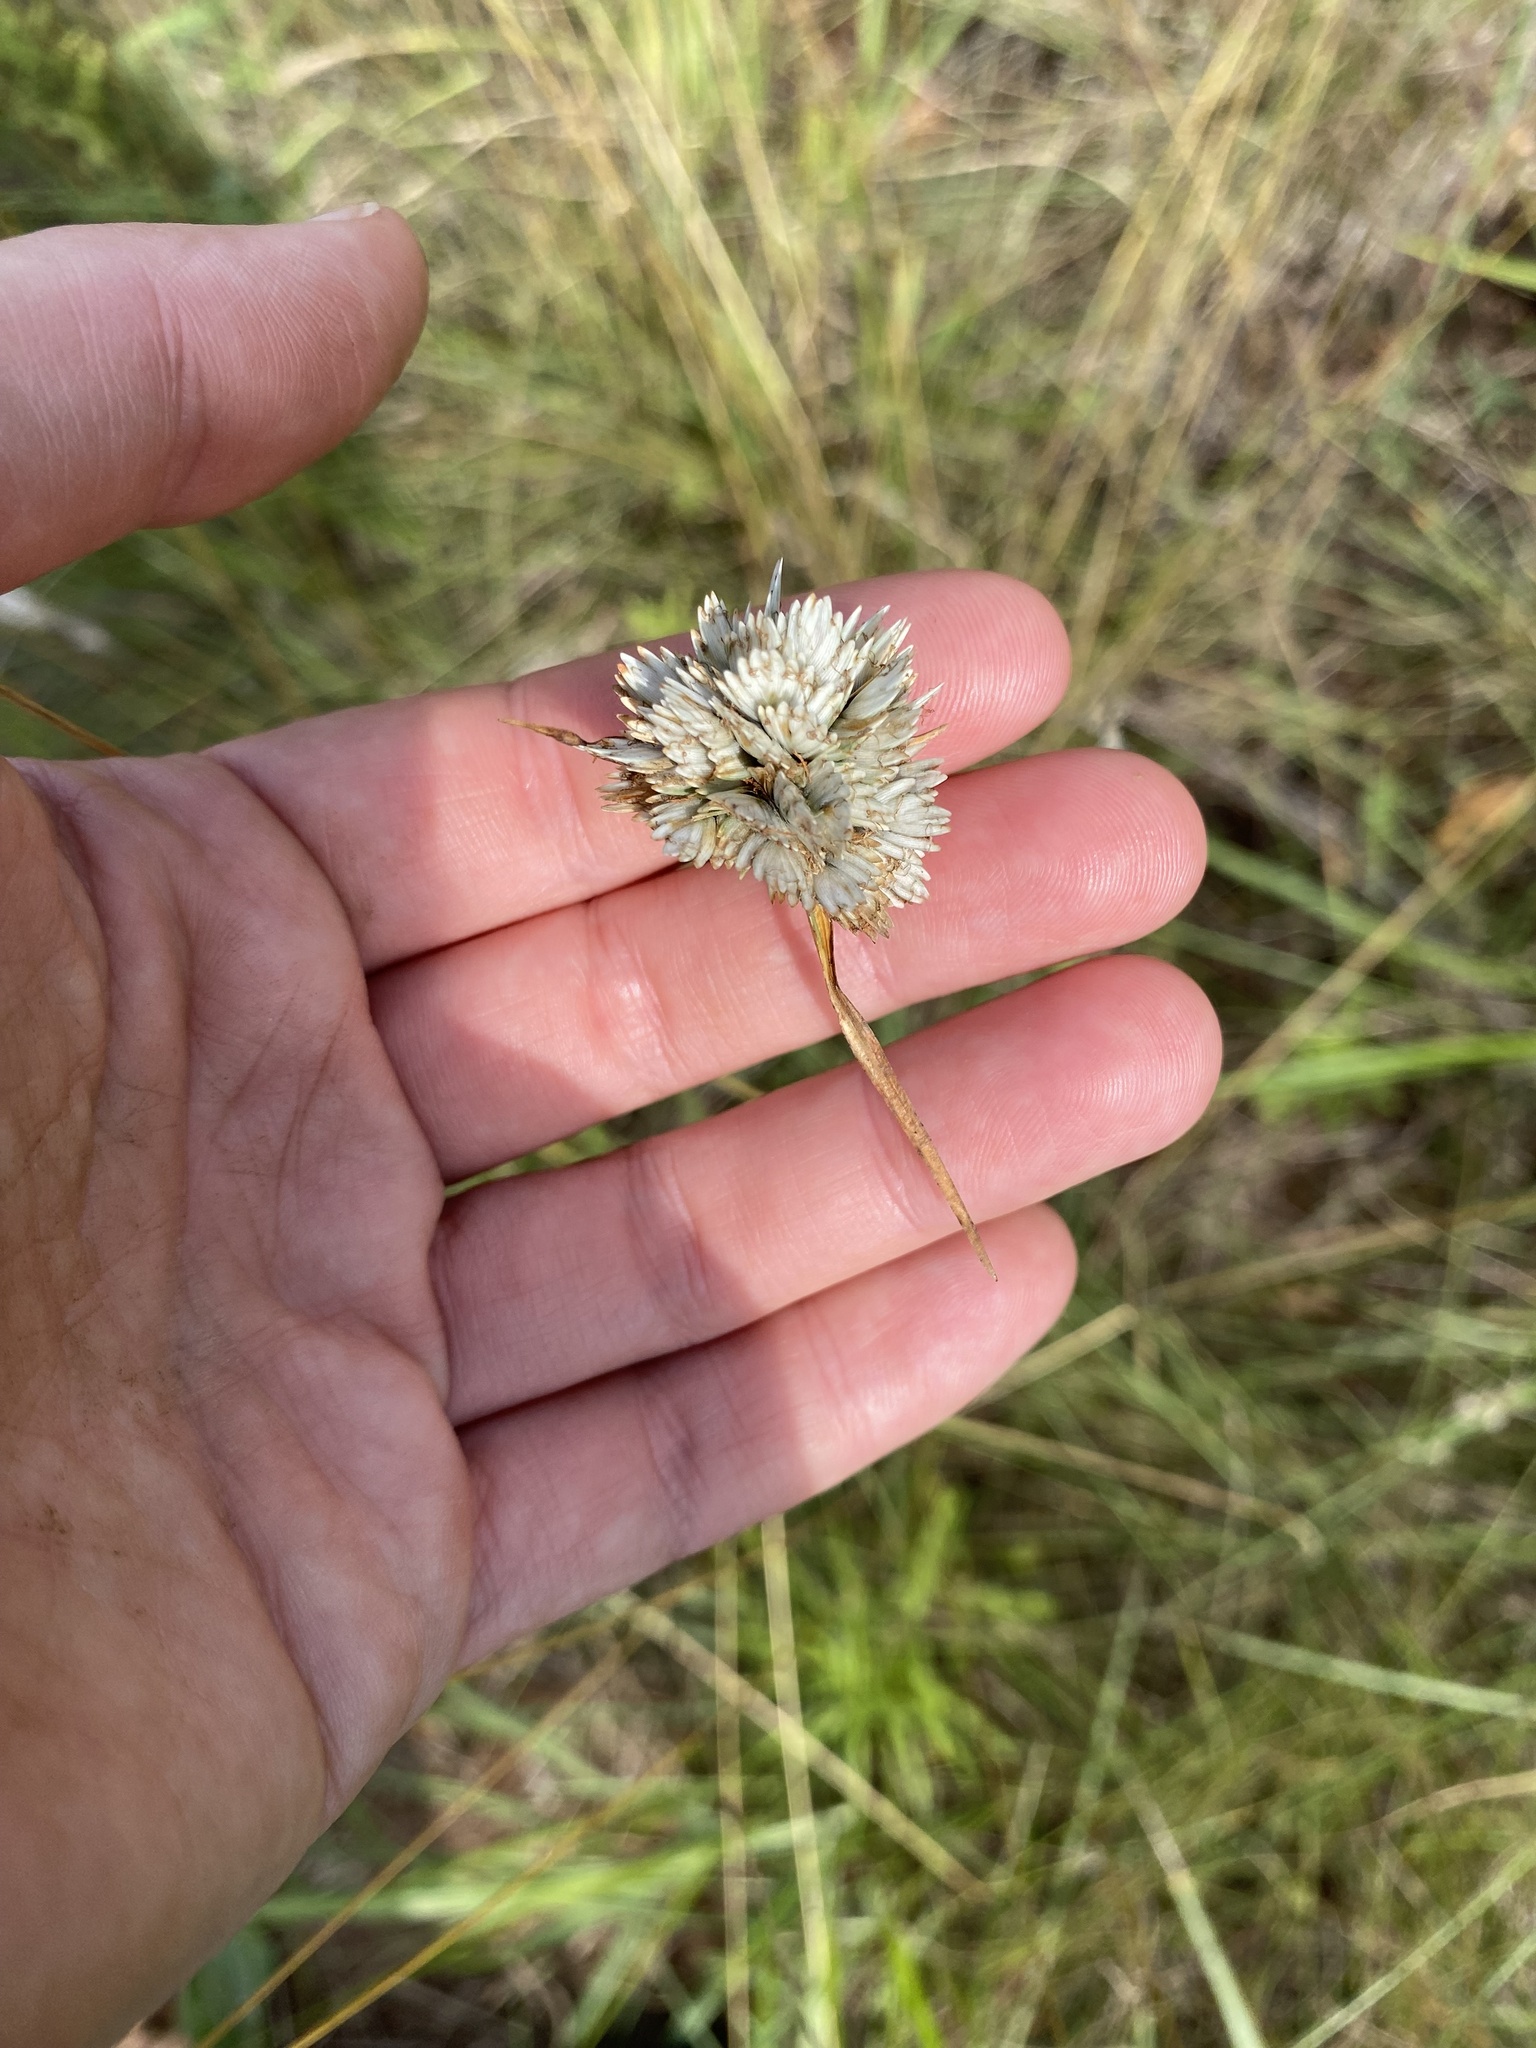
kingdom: Plantae
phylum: Tracheophyta
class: Liliopsida
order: Poales
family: Cyperaceae
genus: Cyperus
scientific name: Cyperus niveus
